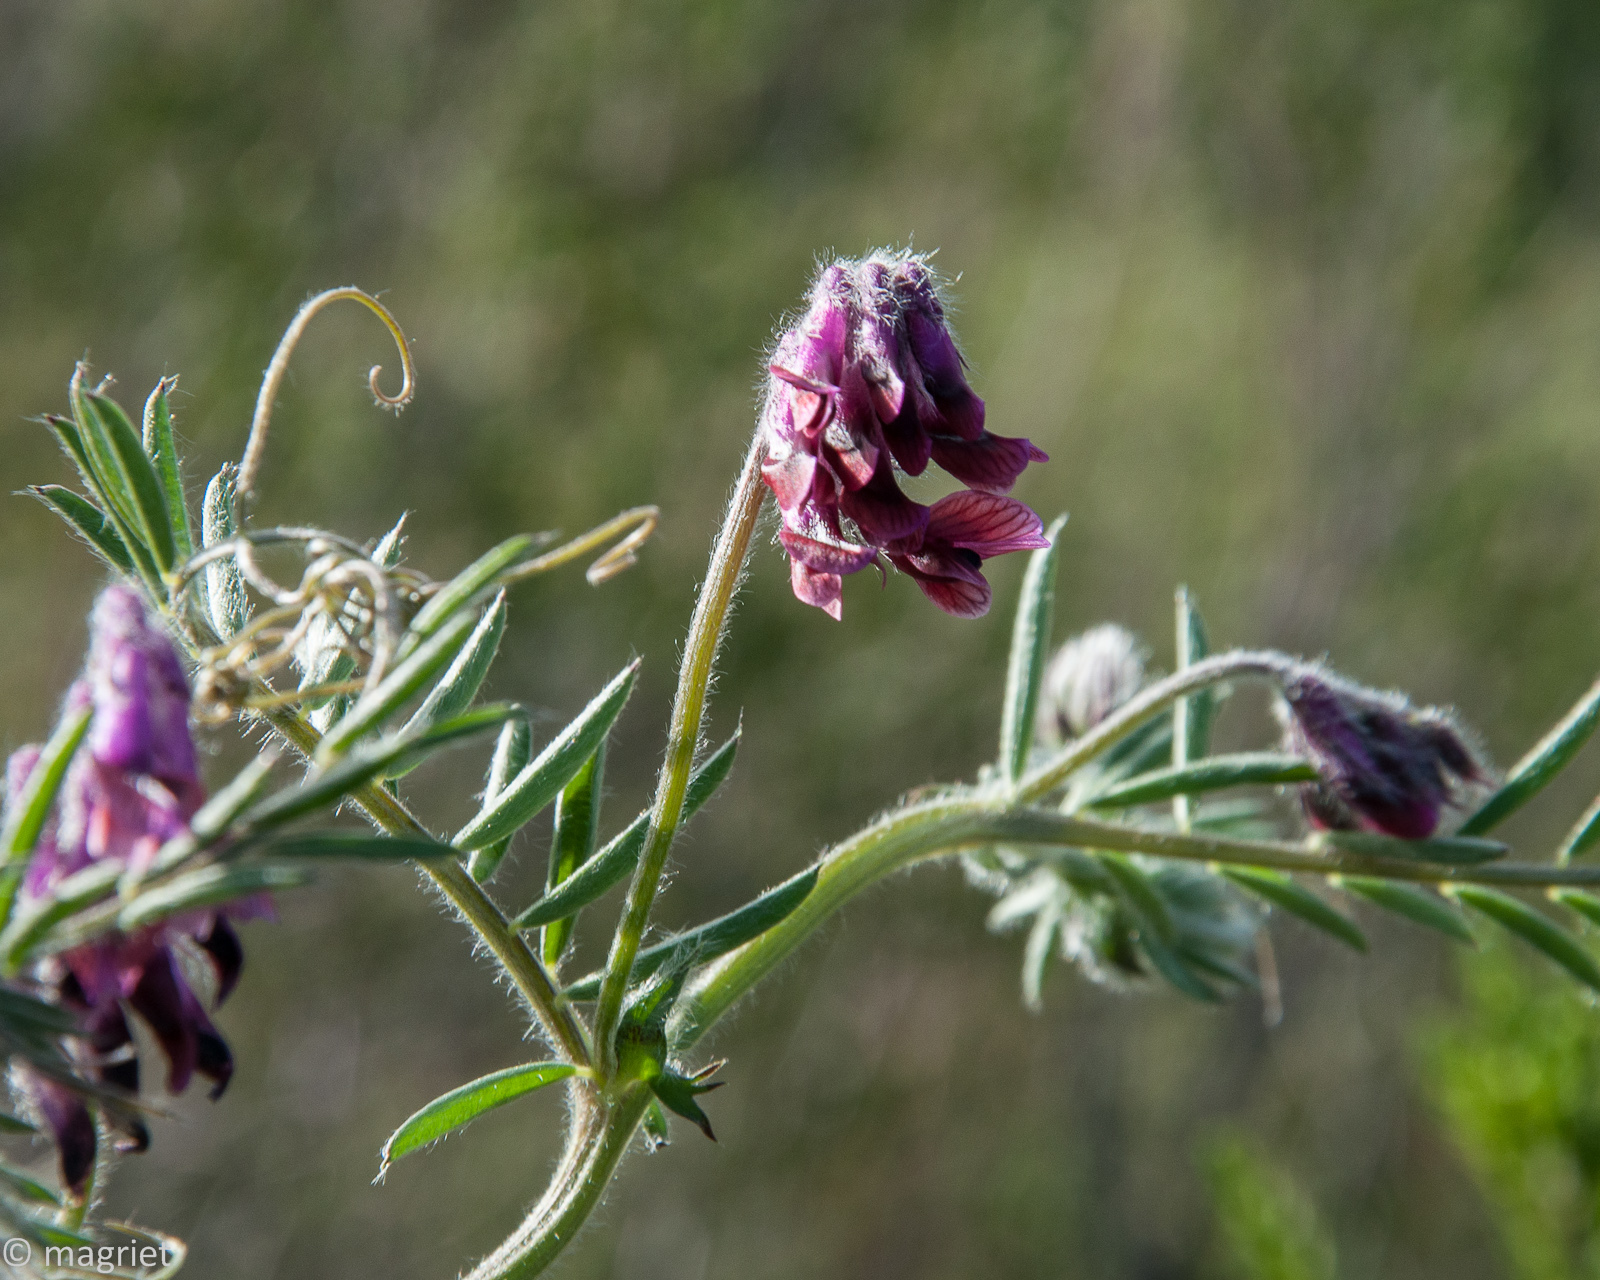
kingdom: Plantae
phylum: Tracheophyta
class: Magnoliopsida
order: Fabales
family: Fabaceae
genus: Vicia
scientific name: Vicia benghalensis
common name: Purple vetch
